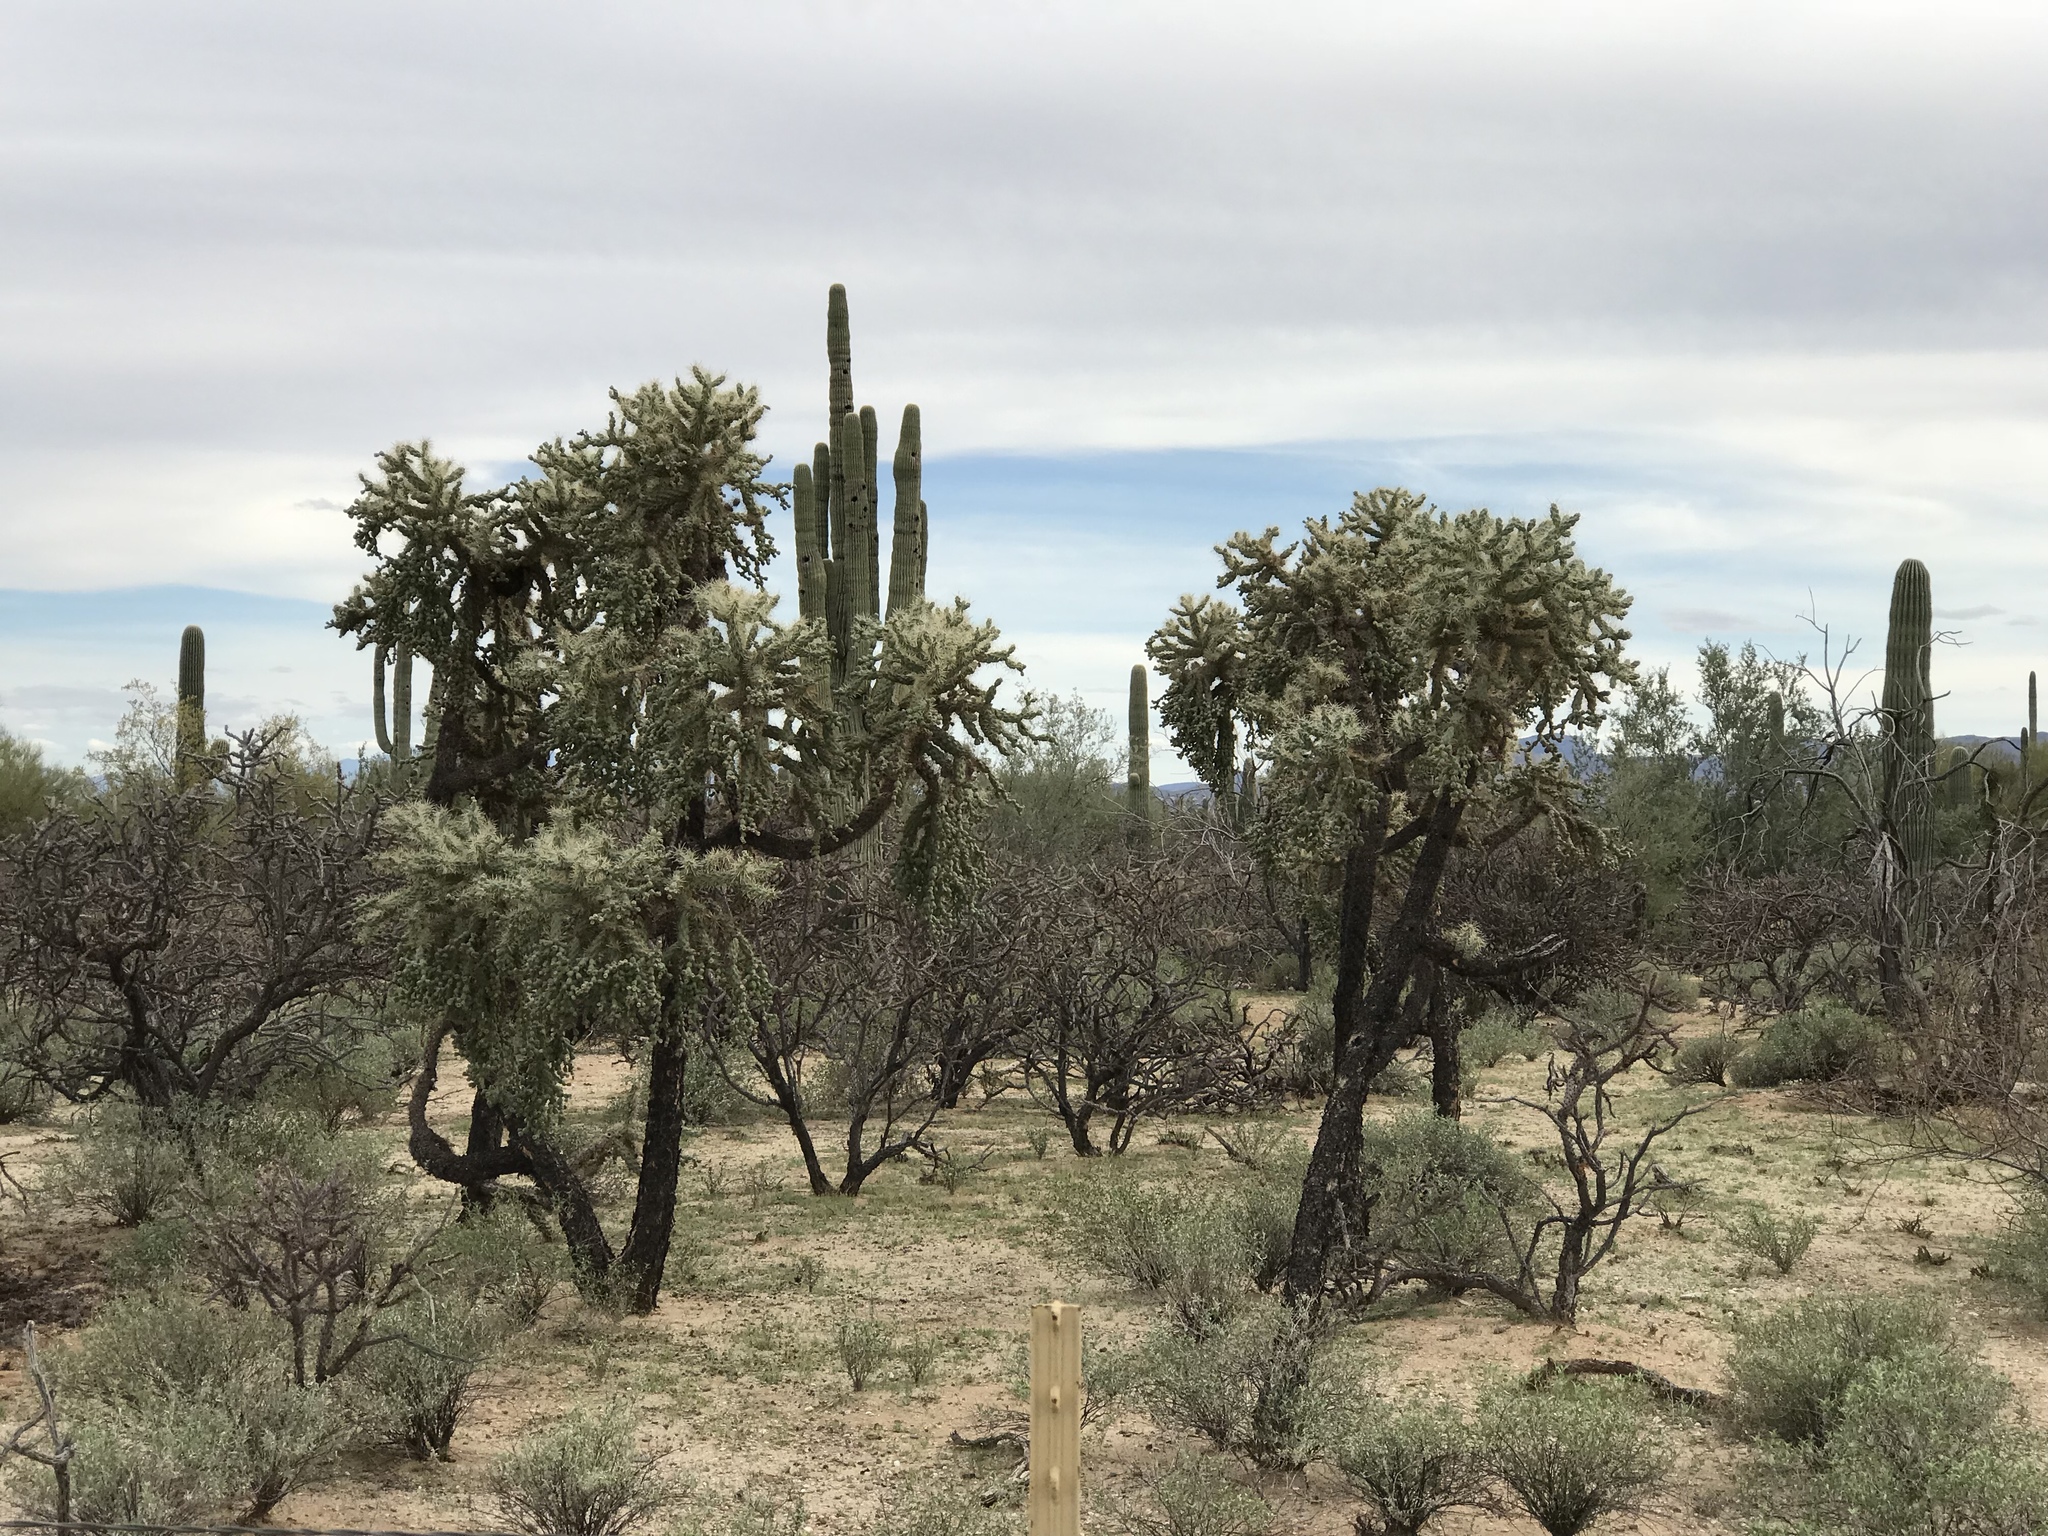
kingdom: Plantae
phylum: Tracheophyta
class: Magnoliopsida
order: Caryophyllales
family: Cactaceae
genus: Cylindropuntia
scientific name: Cylindropuntia fulgida
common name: Jumping cholla
